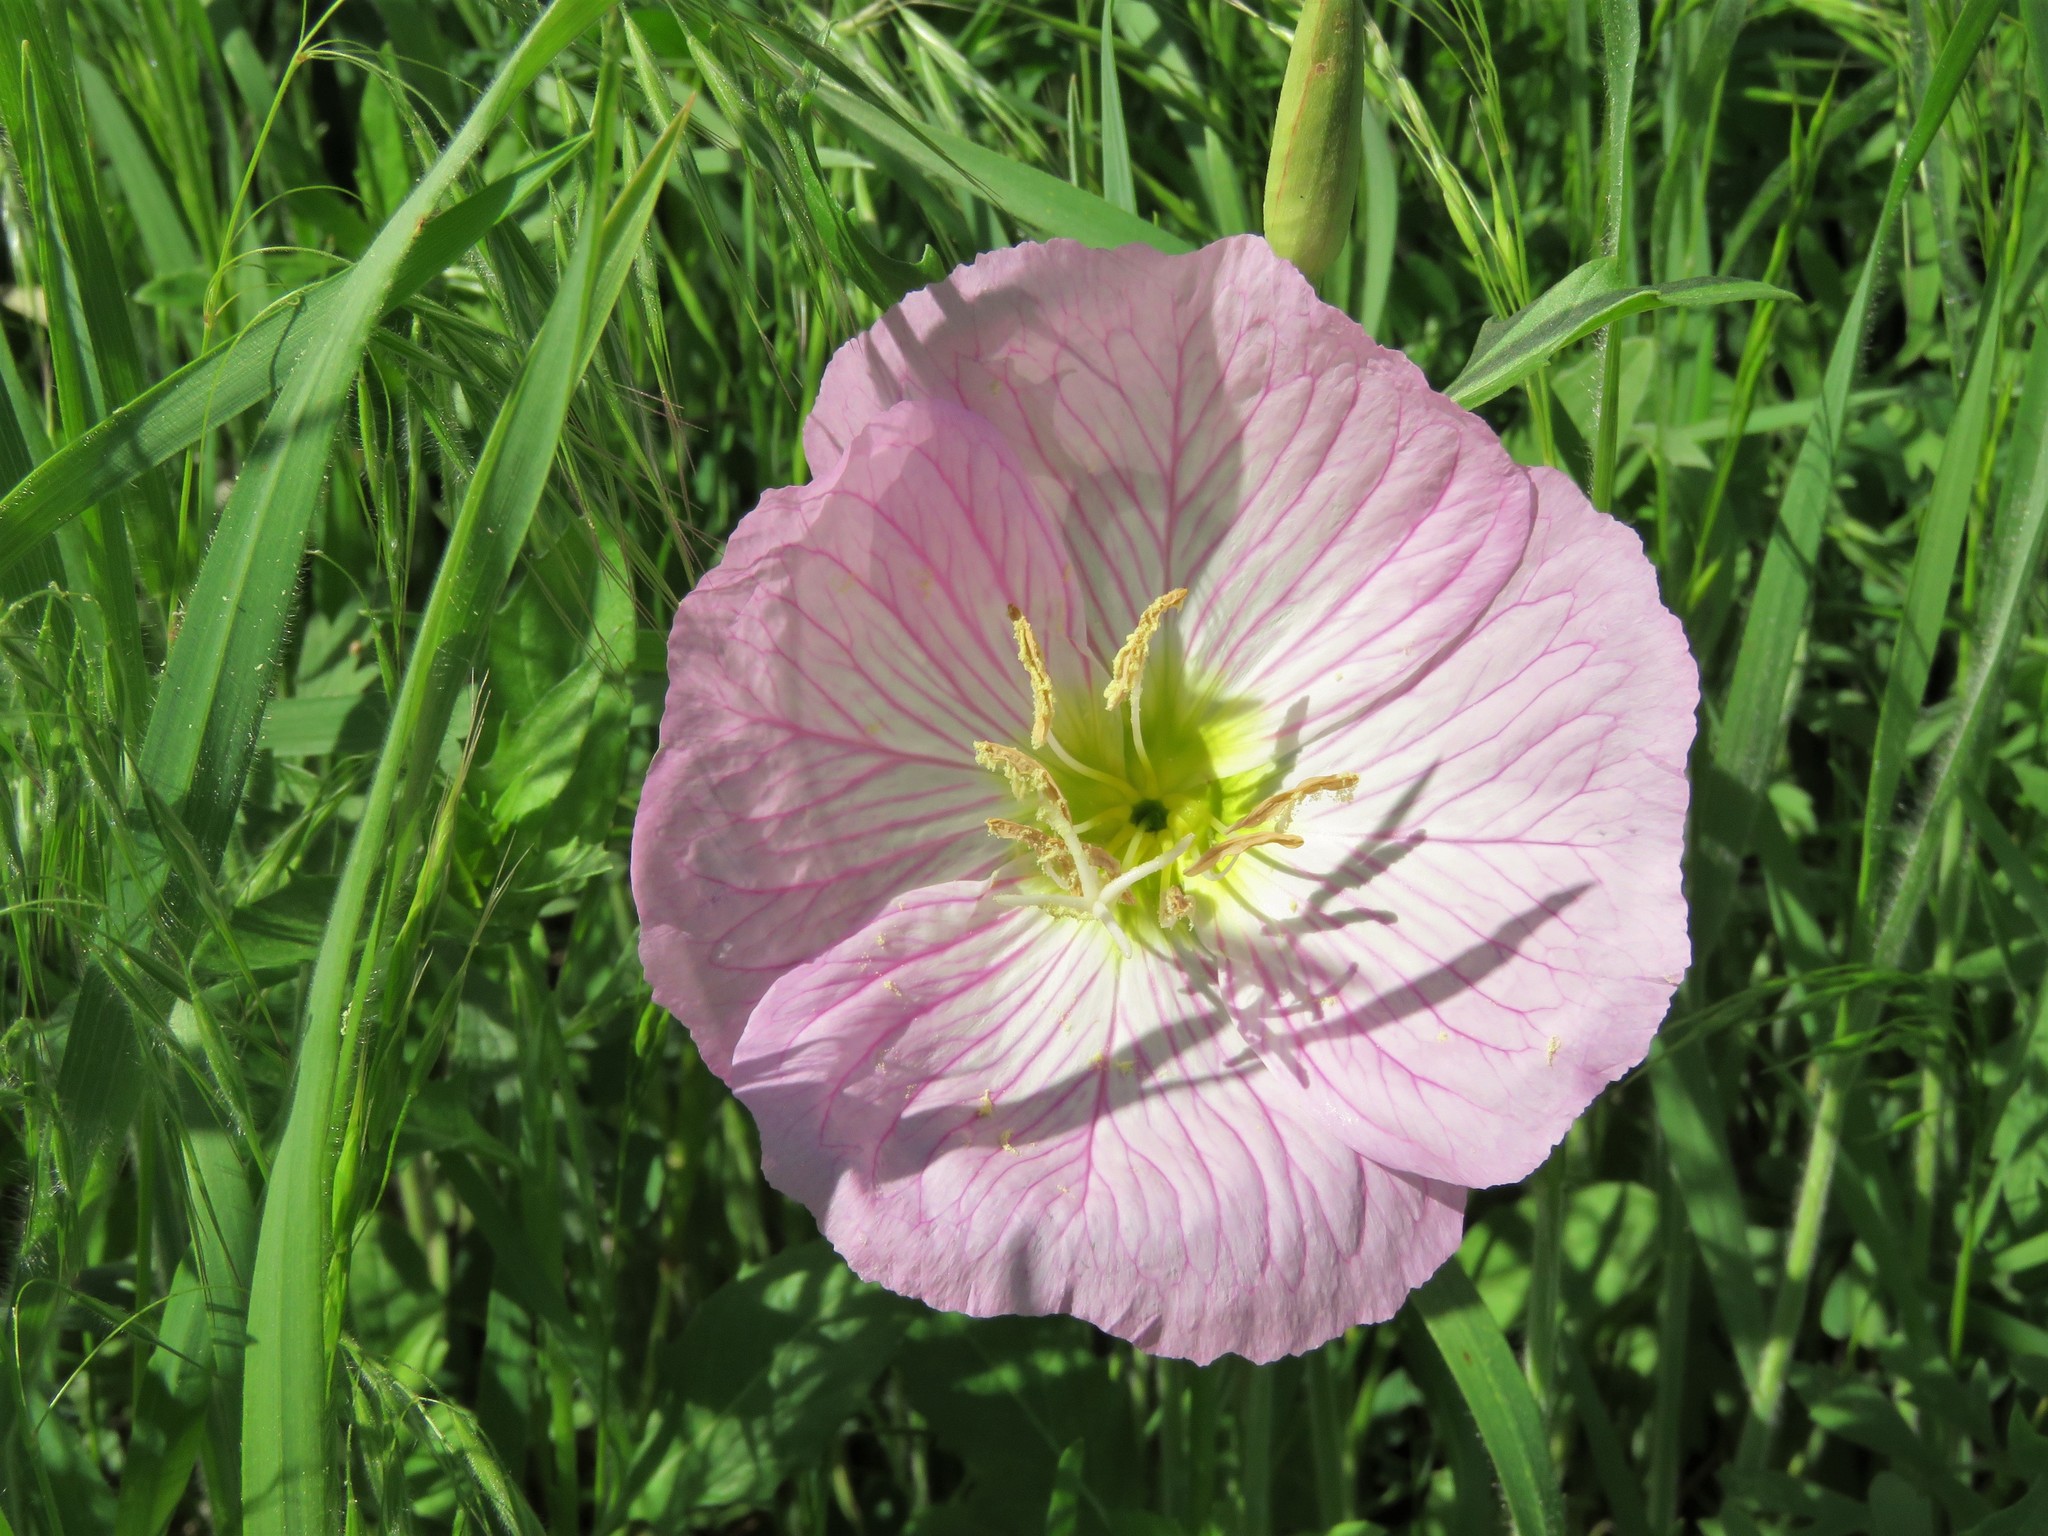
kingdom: Plantae
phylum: Tracheophyta
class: Magnoliopsida
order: Myrtales
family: Onagraceae
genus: Oenothera
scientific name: Oenothera speciosa
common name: White evening-primrose
